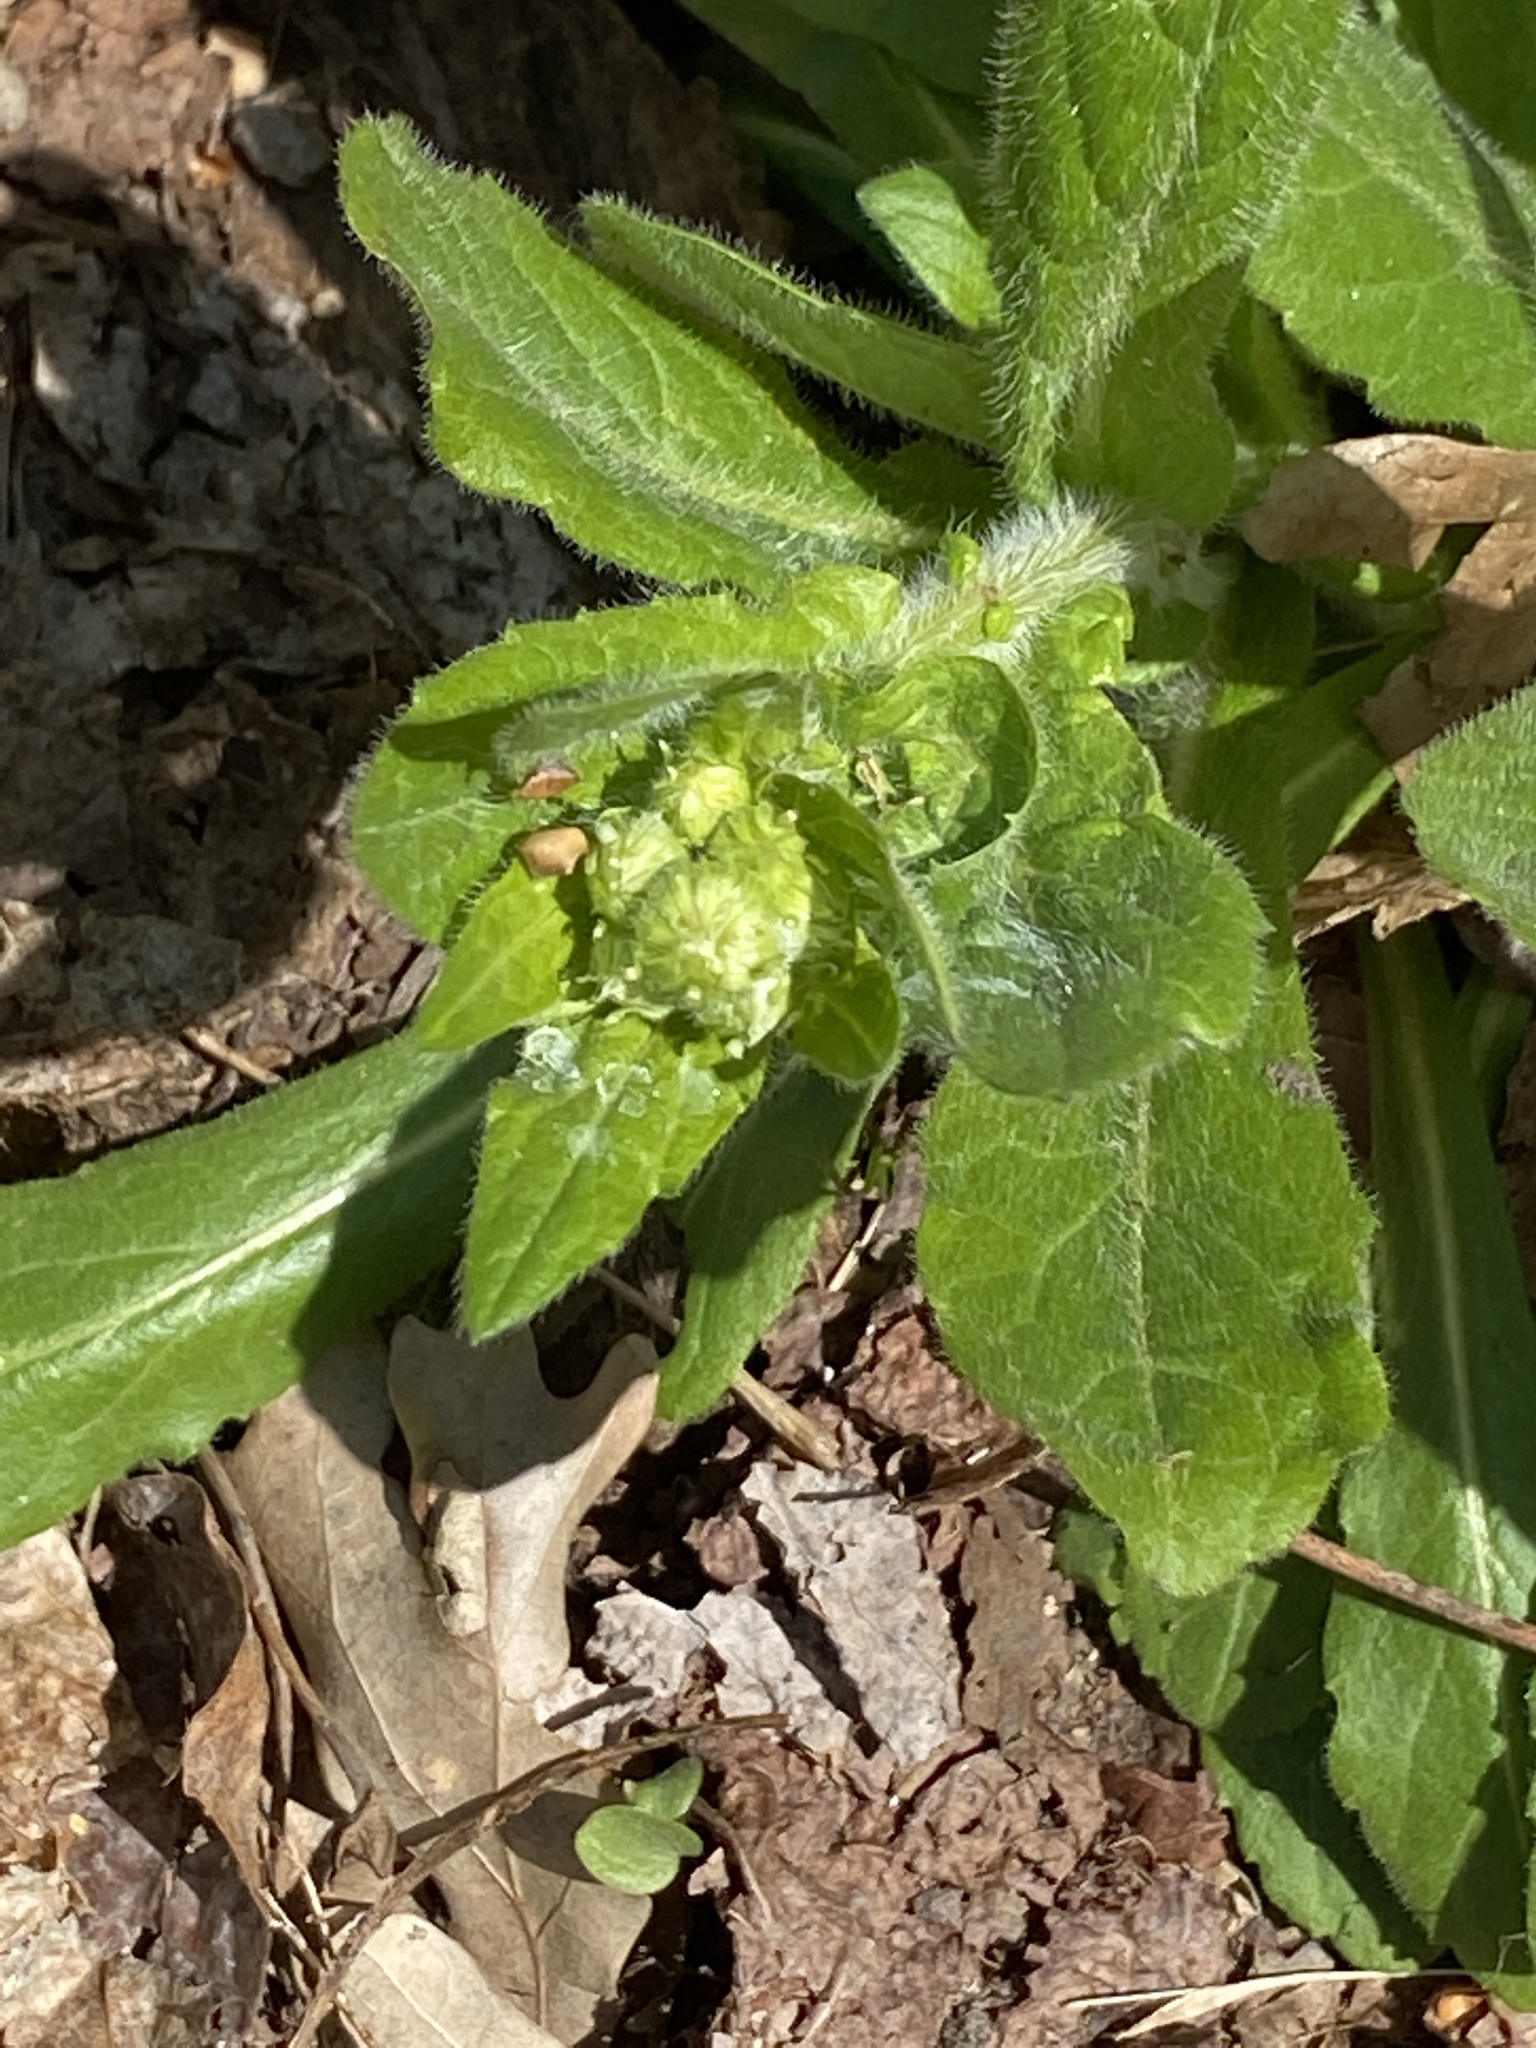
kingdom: Plantae
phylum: Tracheophyta
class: Magnoliopsida
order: Asterales
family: Asteraceae
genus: Erigeron
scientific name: Erigeron philadelphicus
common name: Robin's-plantain
